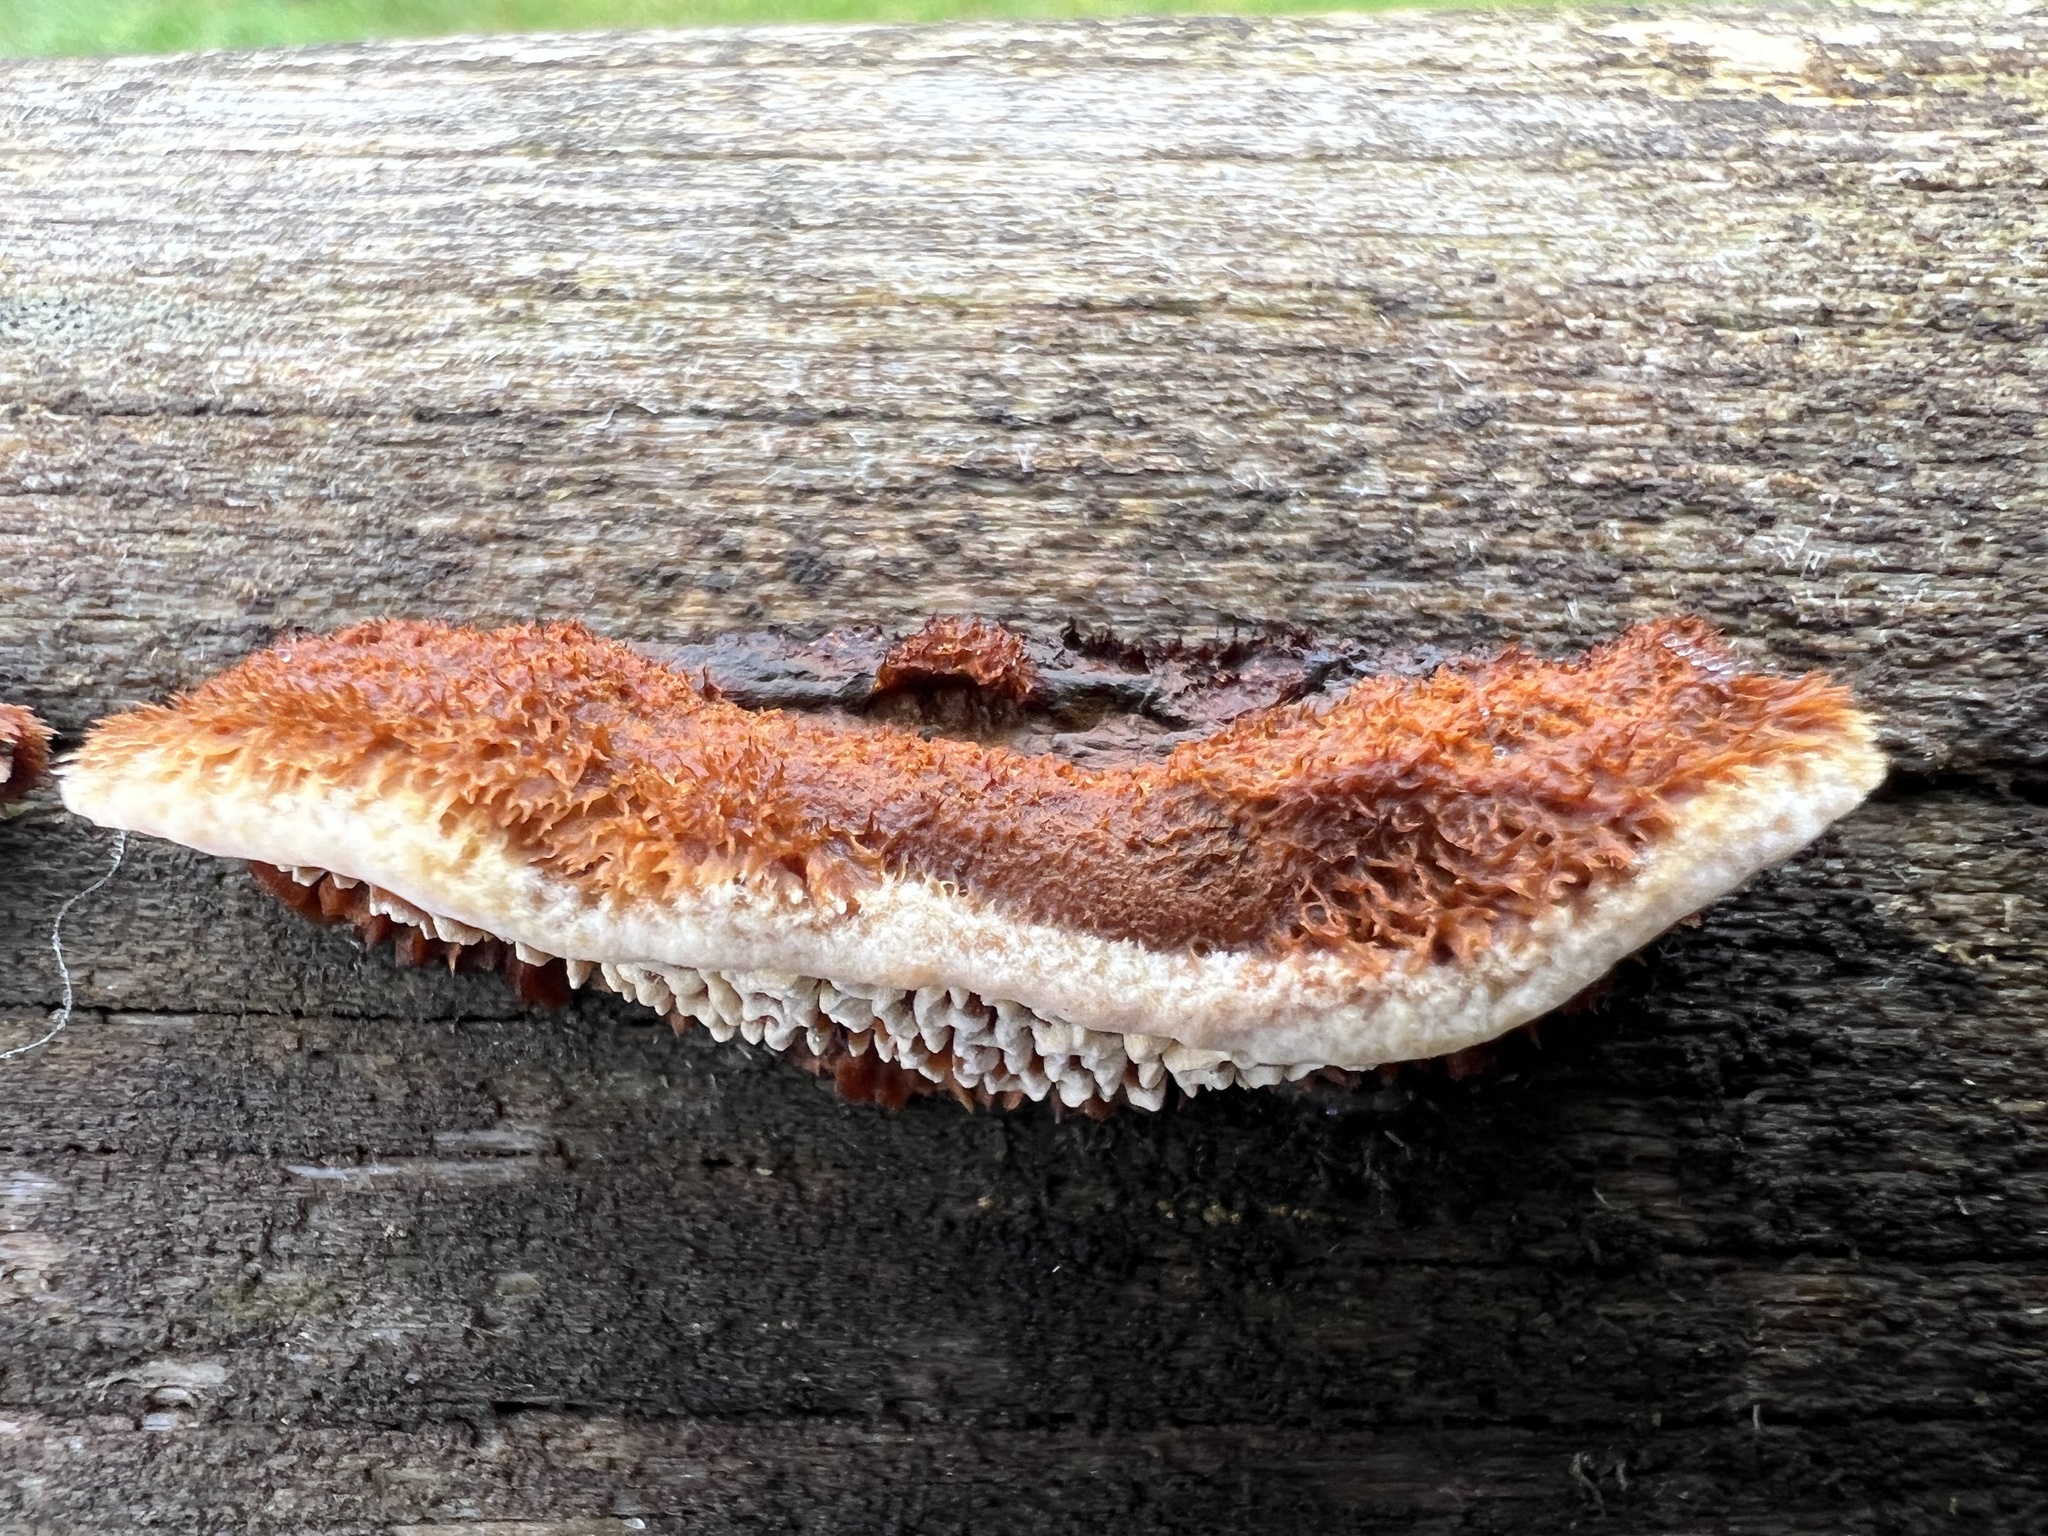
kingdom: Fungi
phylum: Basidiomycota
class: Agaricomycetes
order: Gloeophyllales
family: Gloeophyllaceae
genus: Gloeophyllum
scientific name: Gloeophyllum sepiarium
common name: Conifer mazegill
